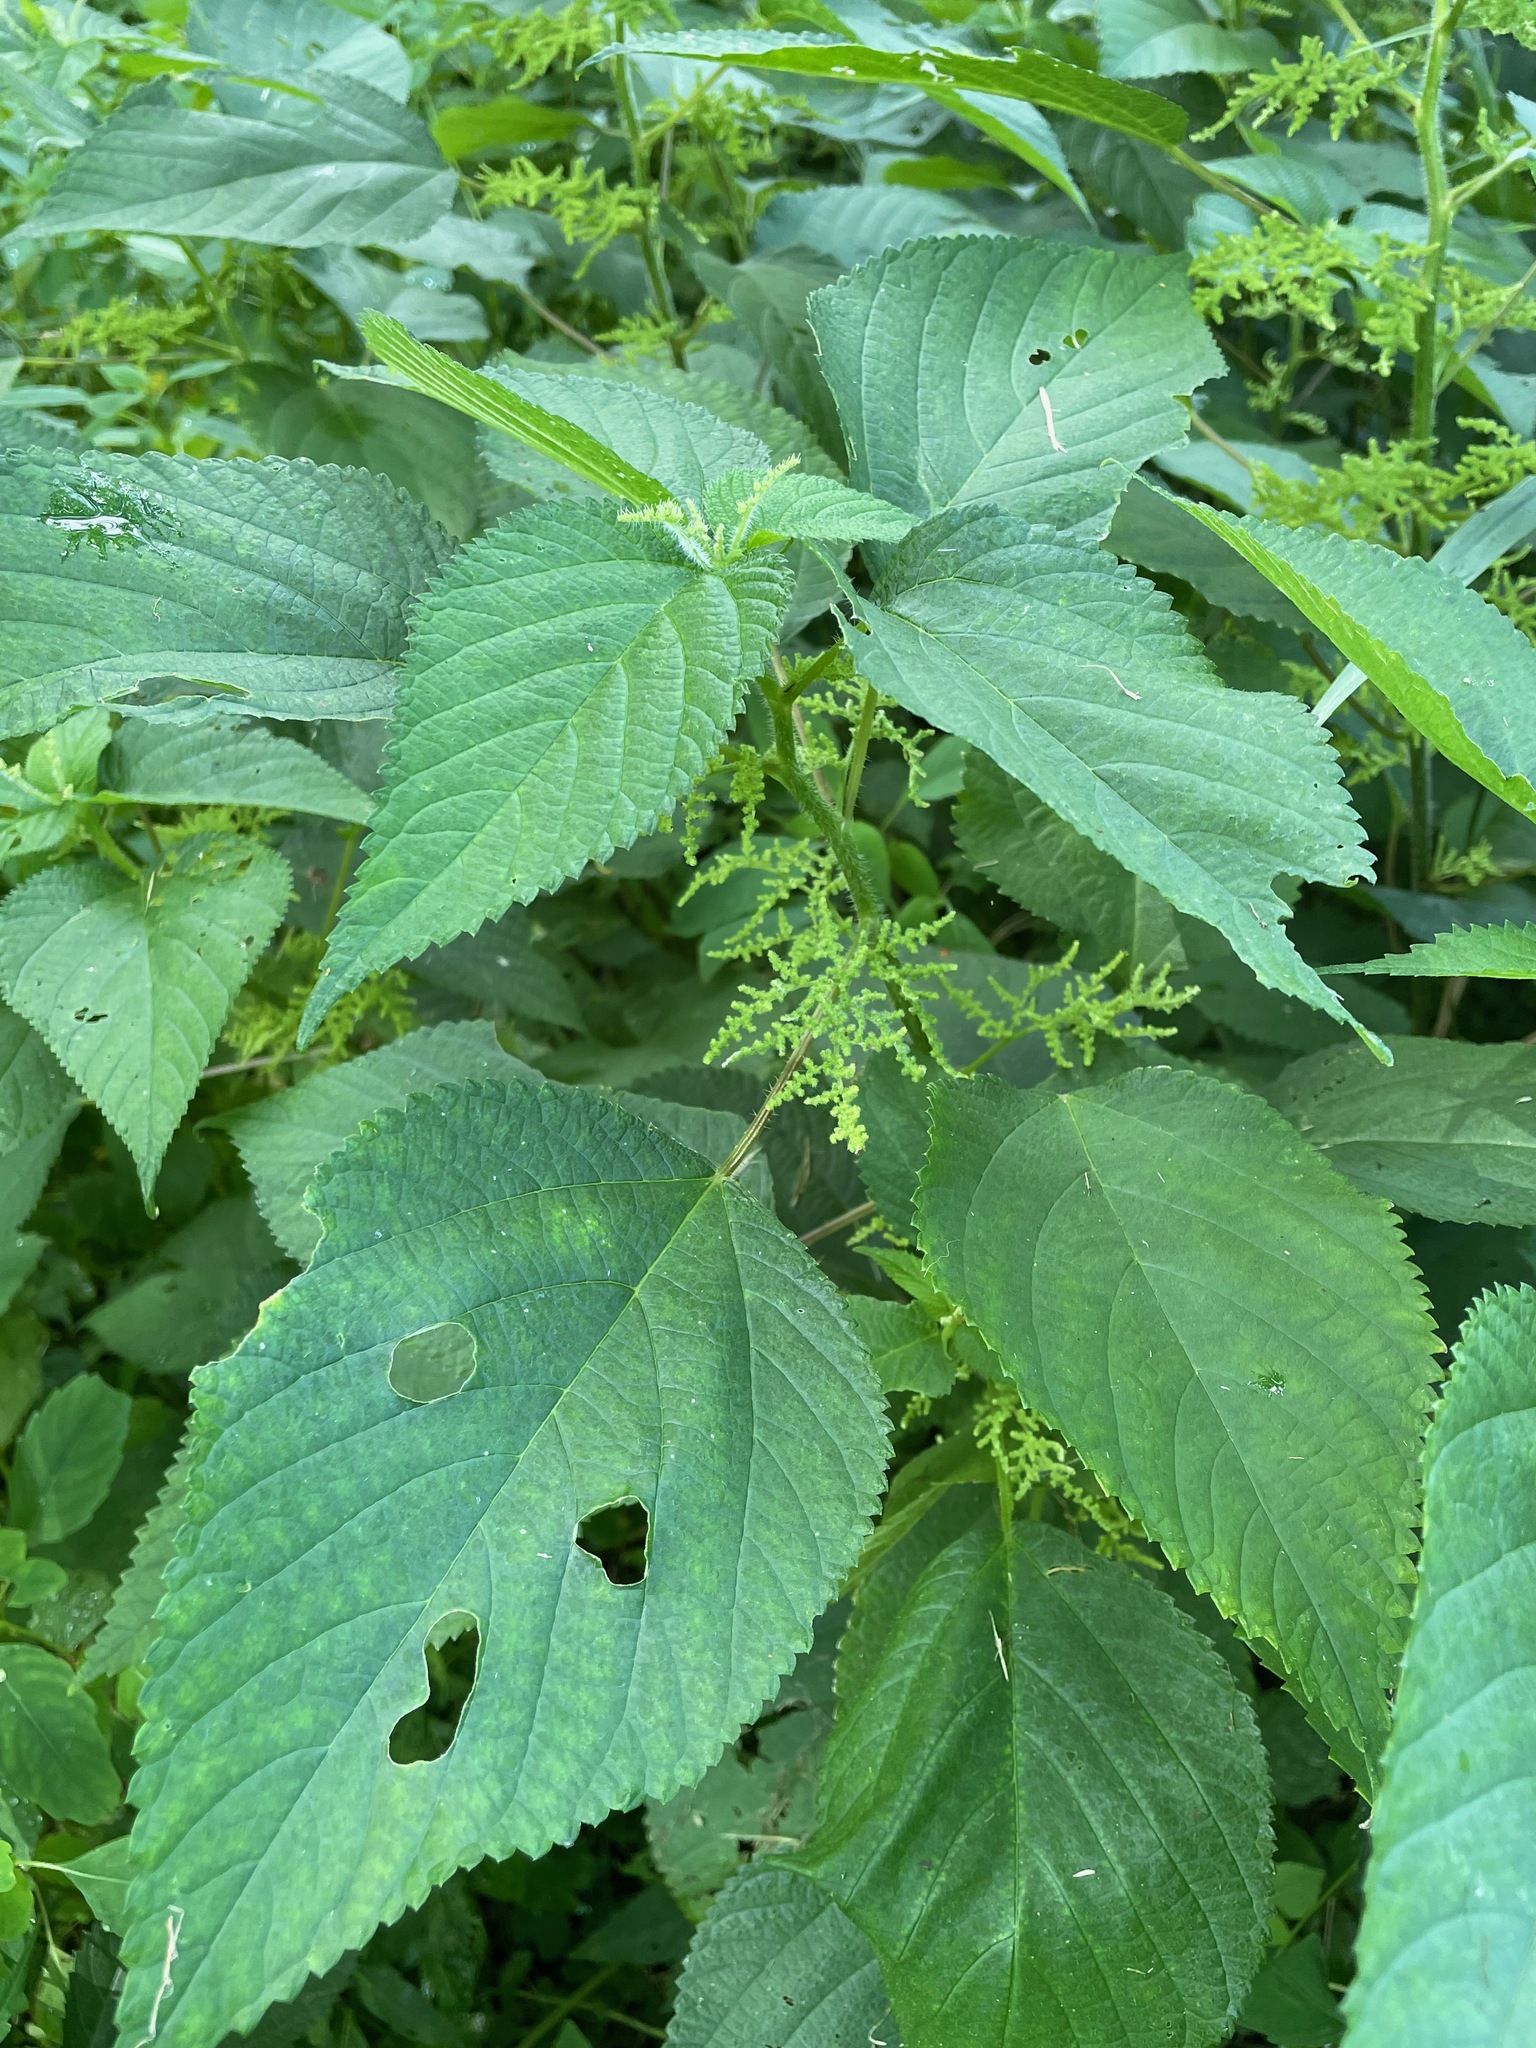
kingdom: Plantae
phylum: Tracheophyta
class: Magnoliopsida
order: Rosales
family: Urticaceae
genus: Laportea
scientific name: Laportea canadensis
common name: Canada nettle
